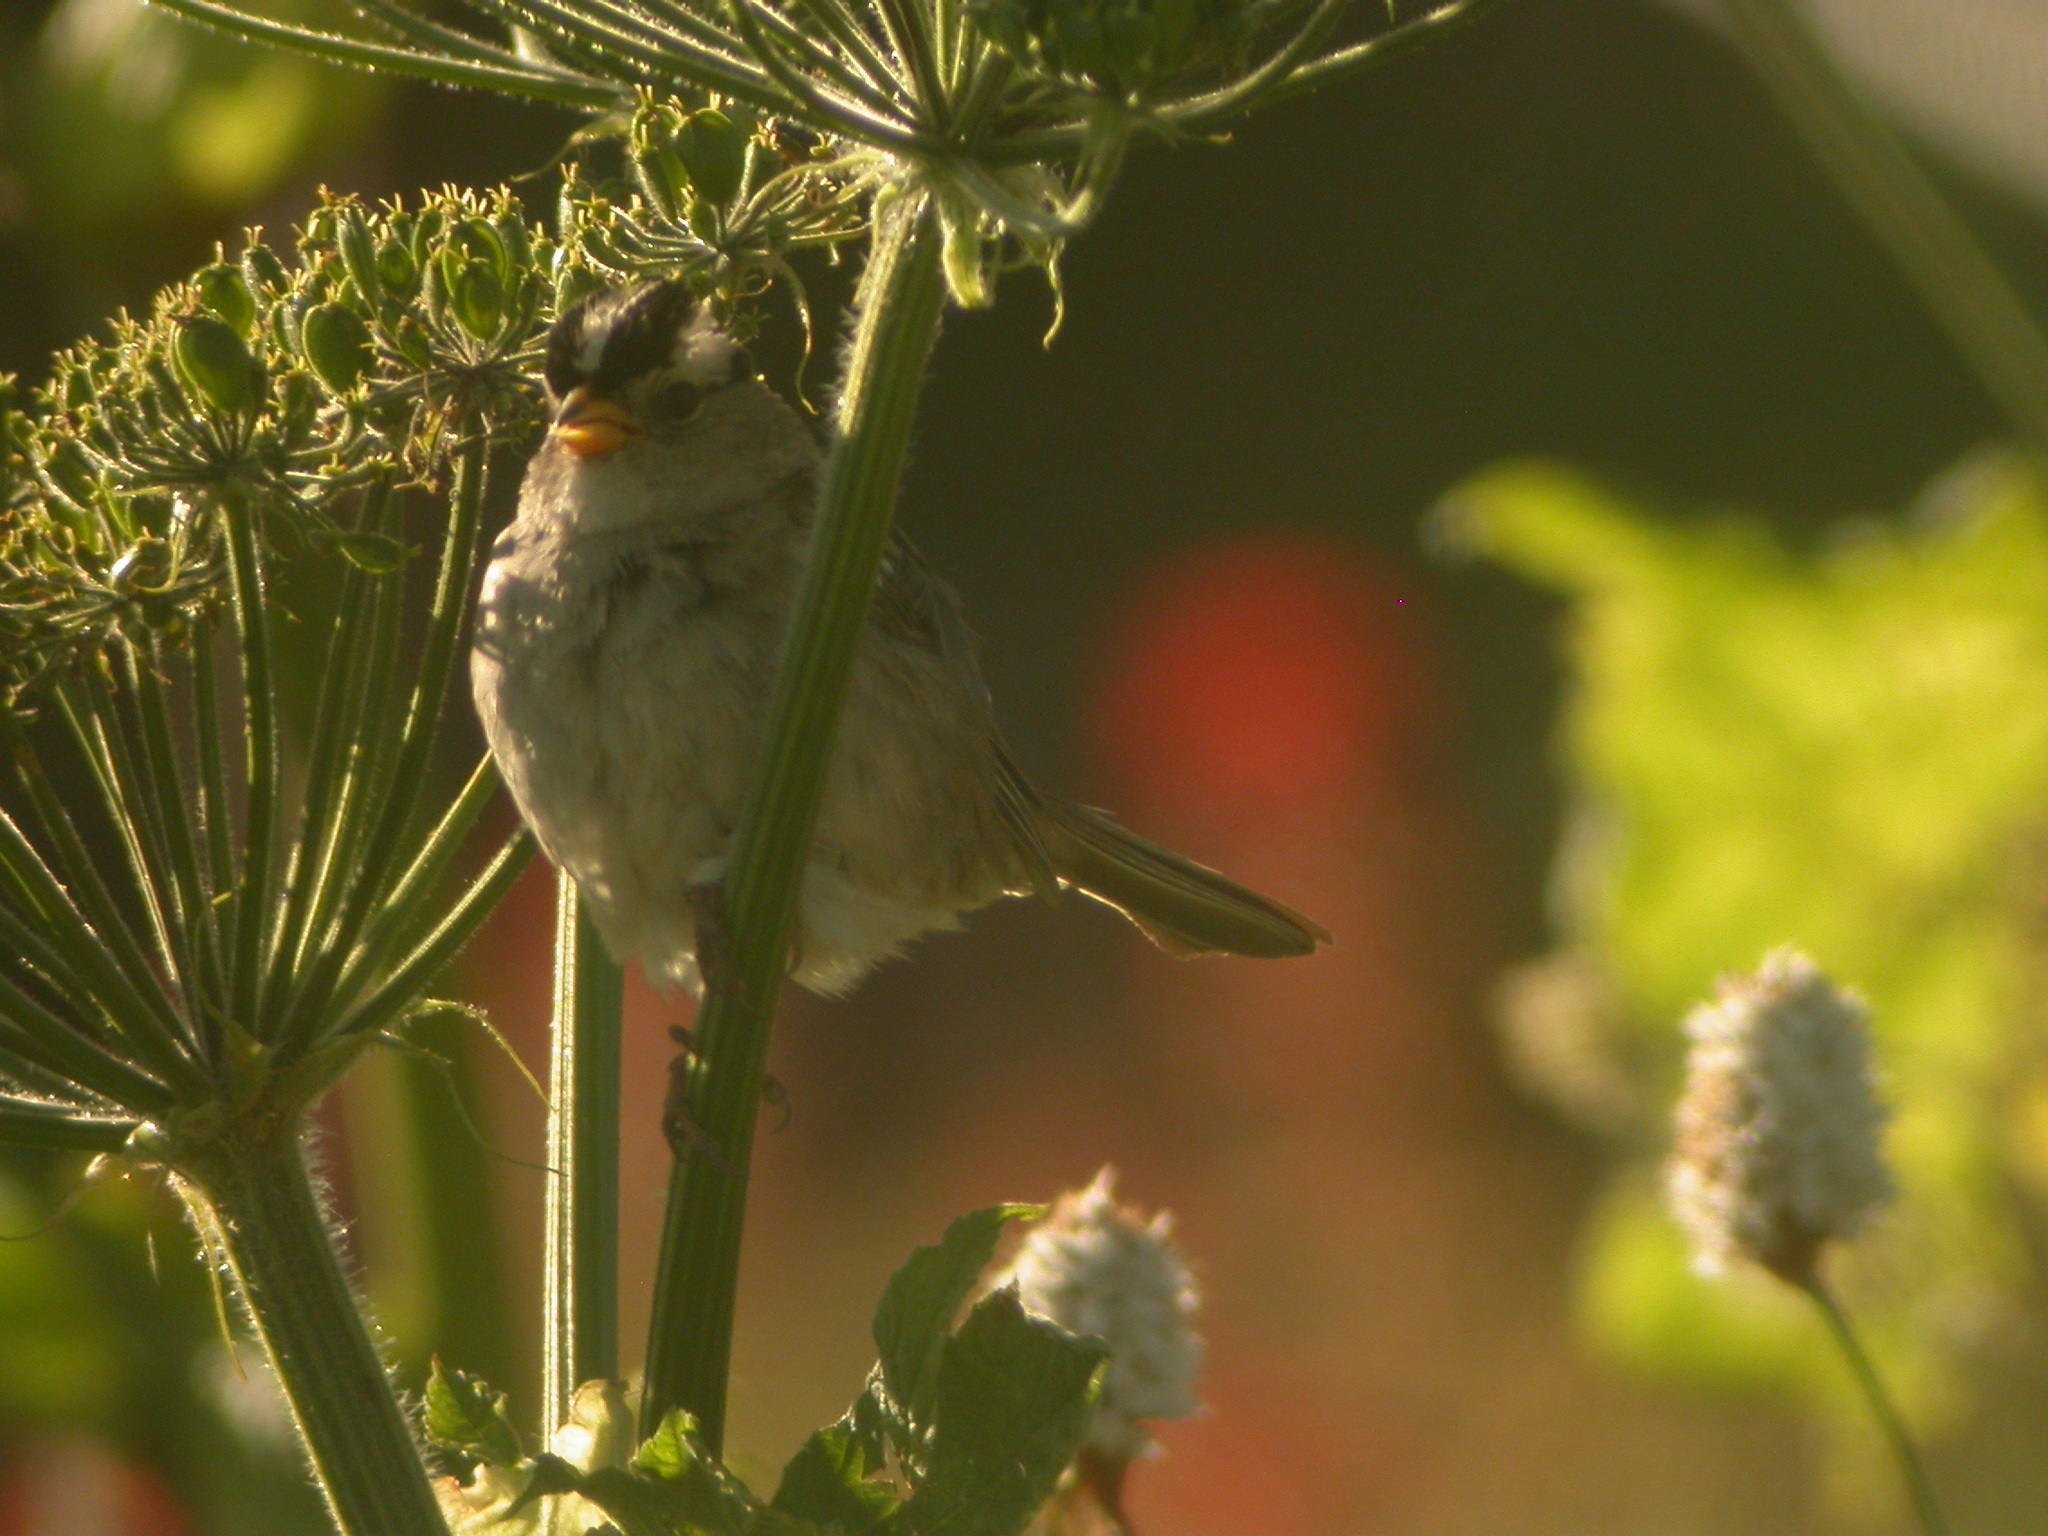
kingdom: Animalia
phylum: Chordata
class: Aves
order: Passeriformes
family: Passerellidae
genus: Zonotrichia
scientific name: Zonotrichia leucophrys
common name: White-crowned sparrow
